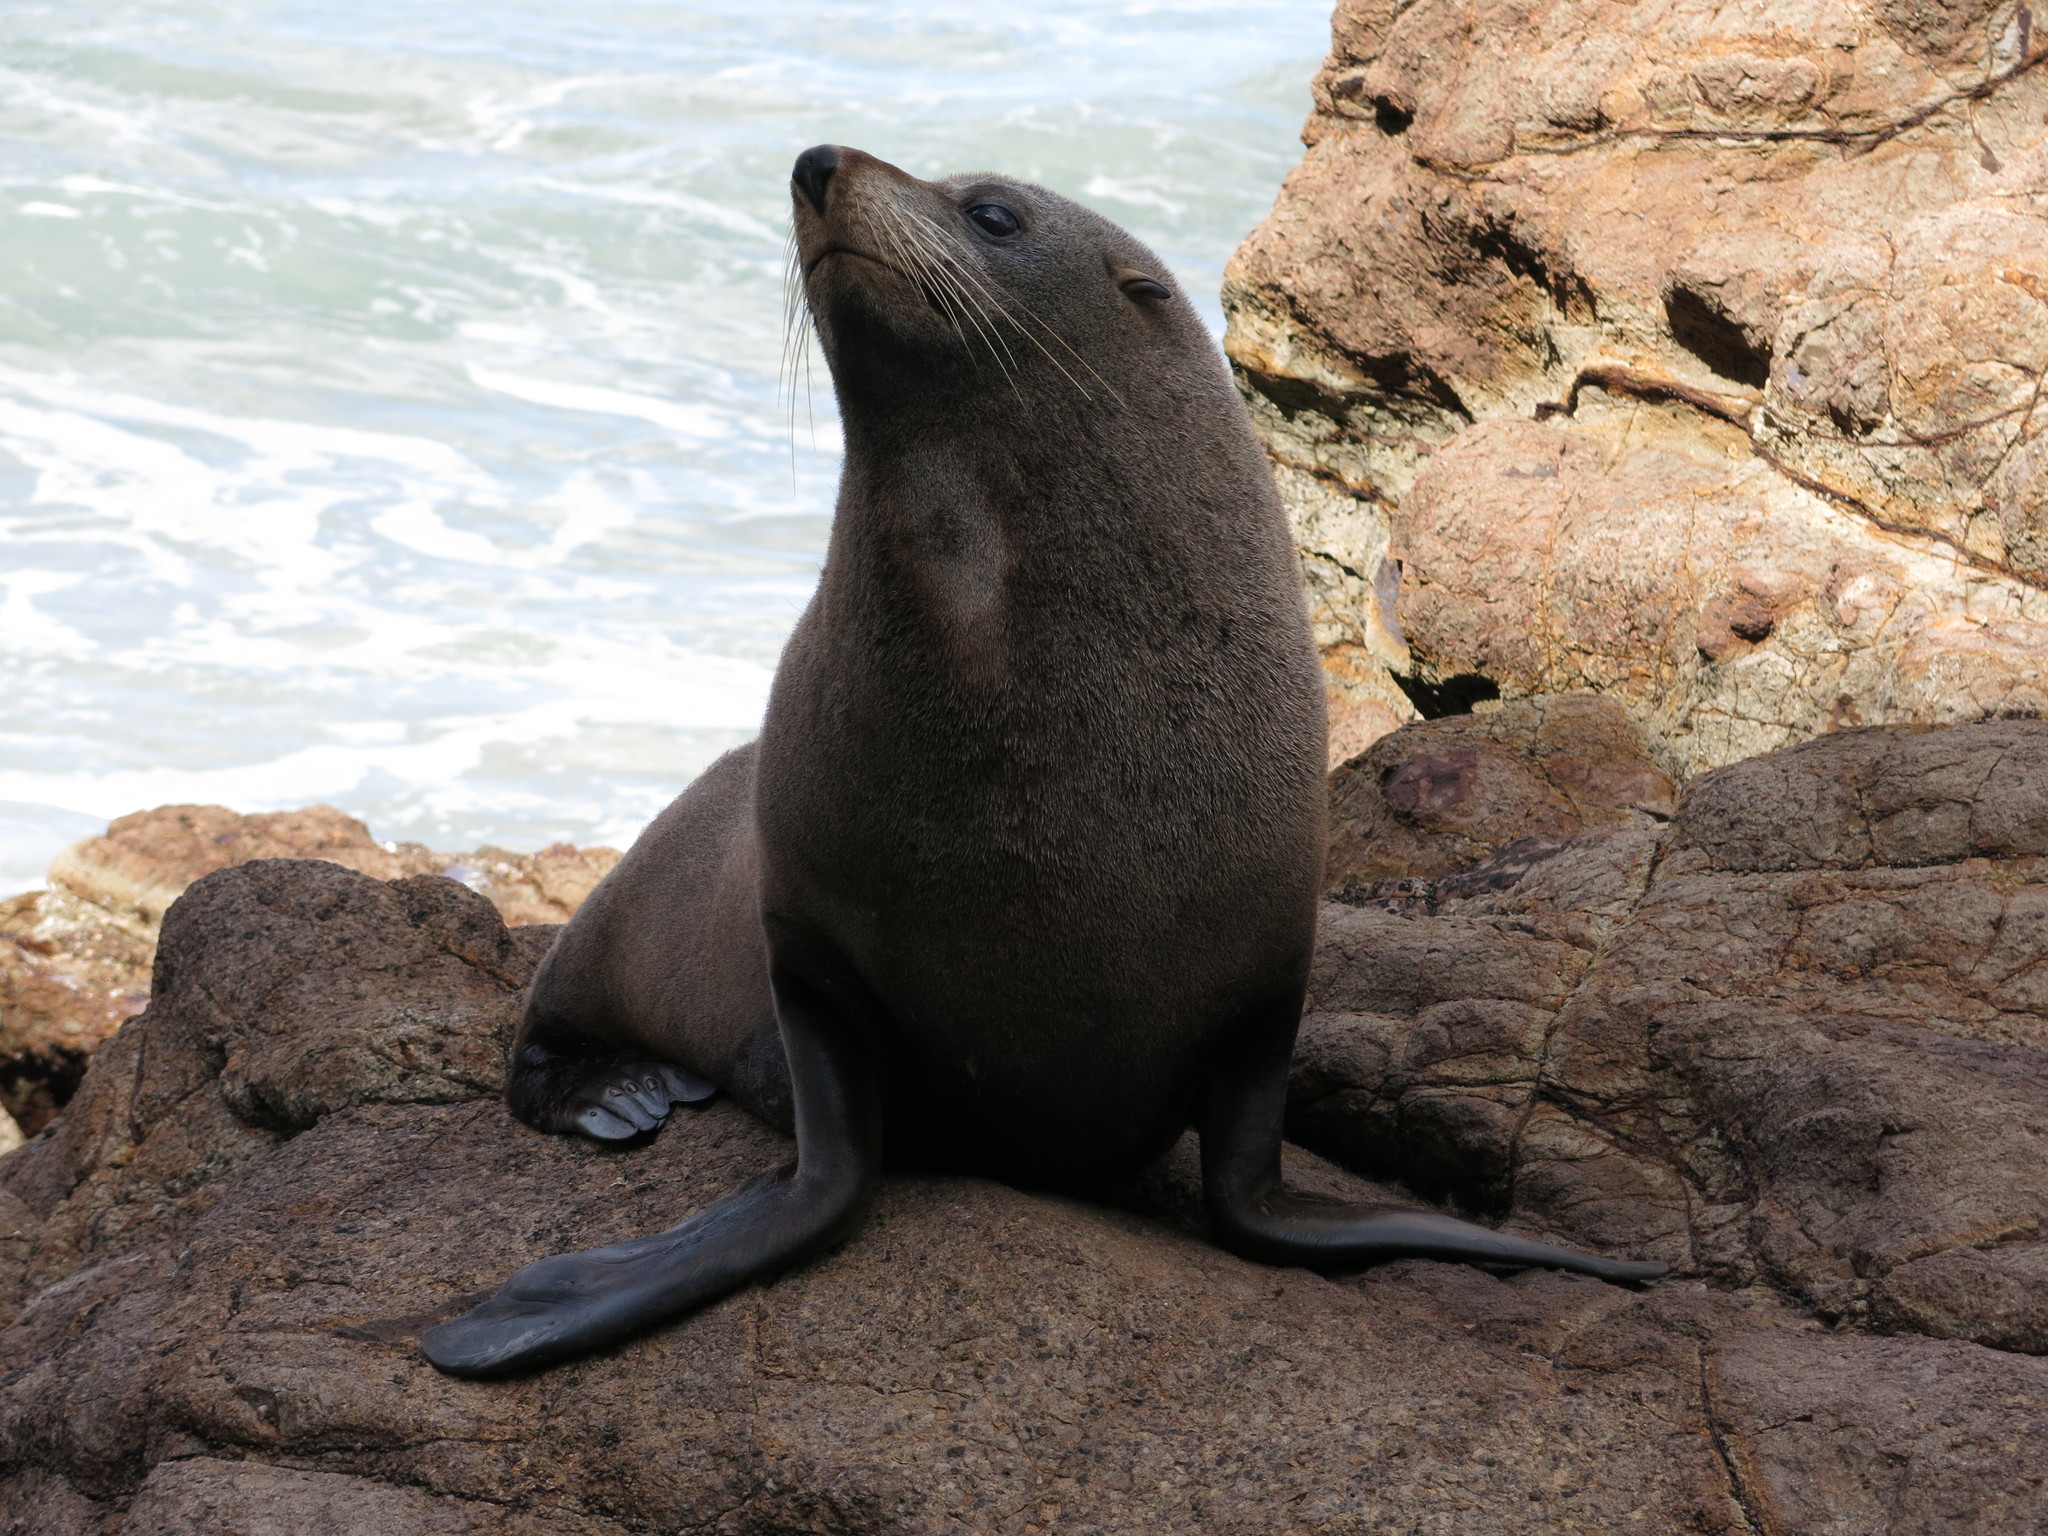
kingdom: Animalia
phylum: Chordata
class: Mammalia
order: Carnivora
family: Otariidae
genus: Arctocephalus
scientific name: Arctocephalus forsteri
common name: New zealand fur seal
